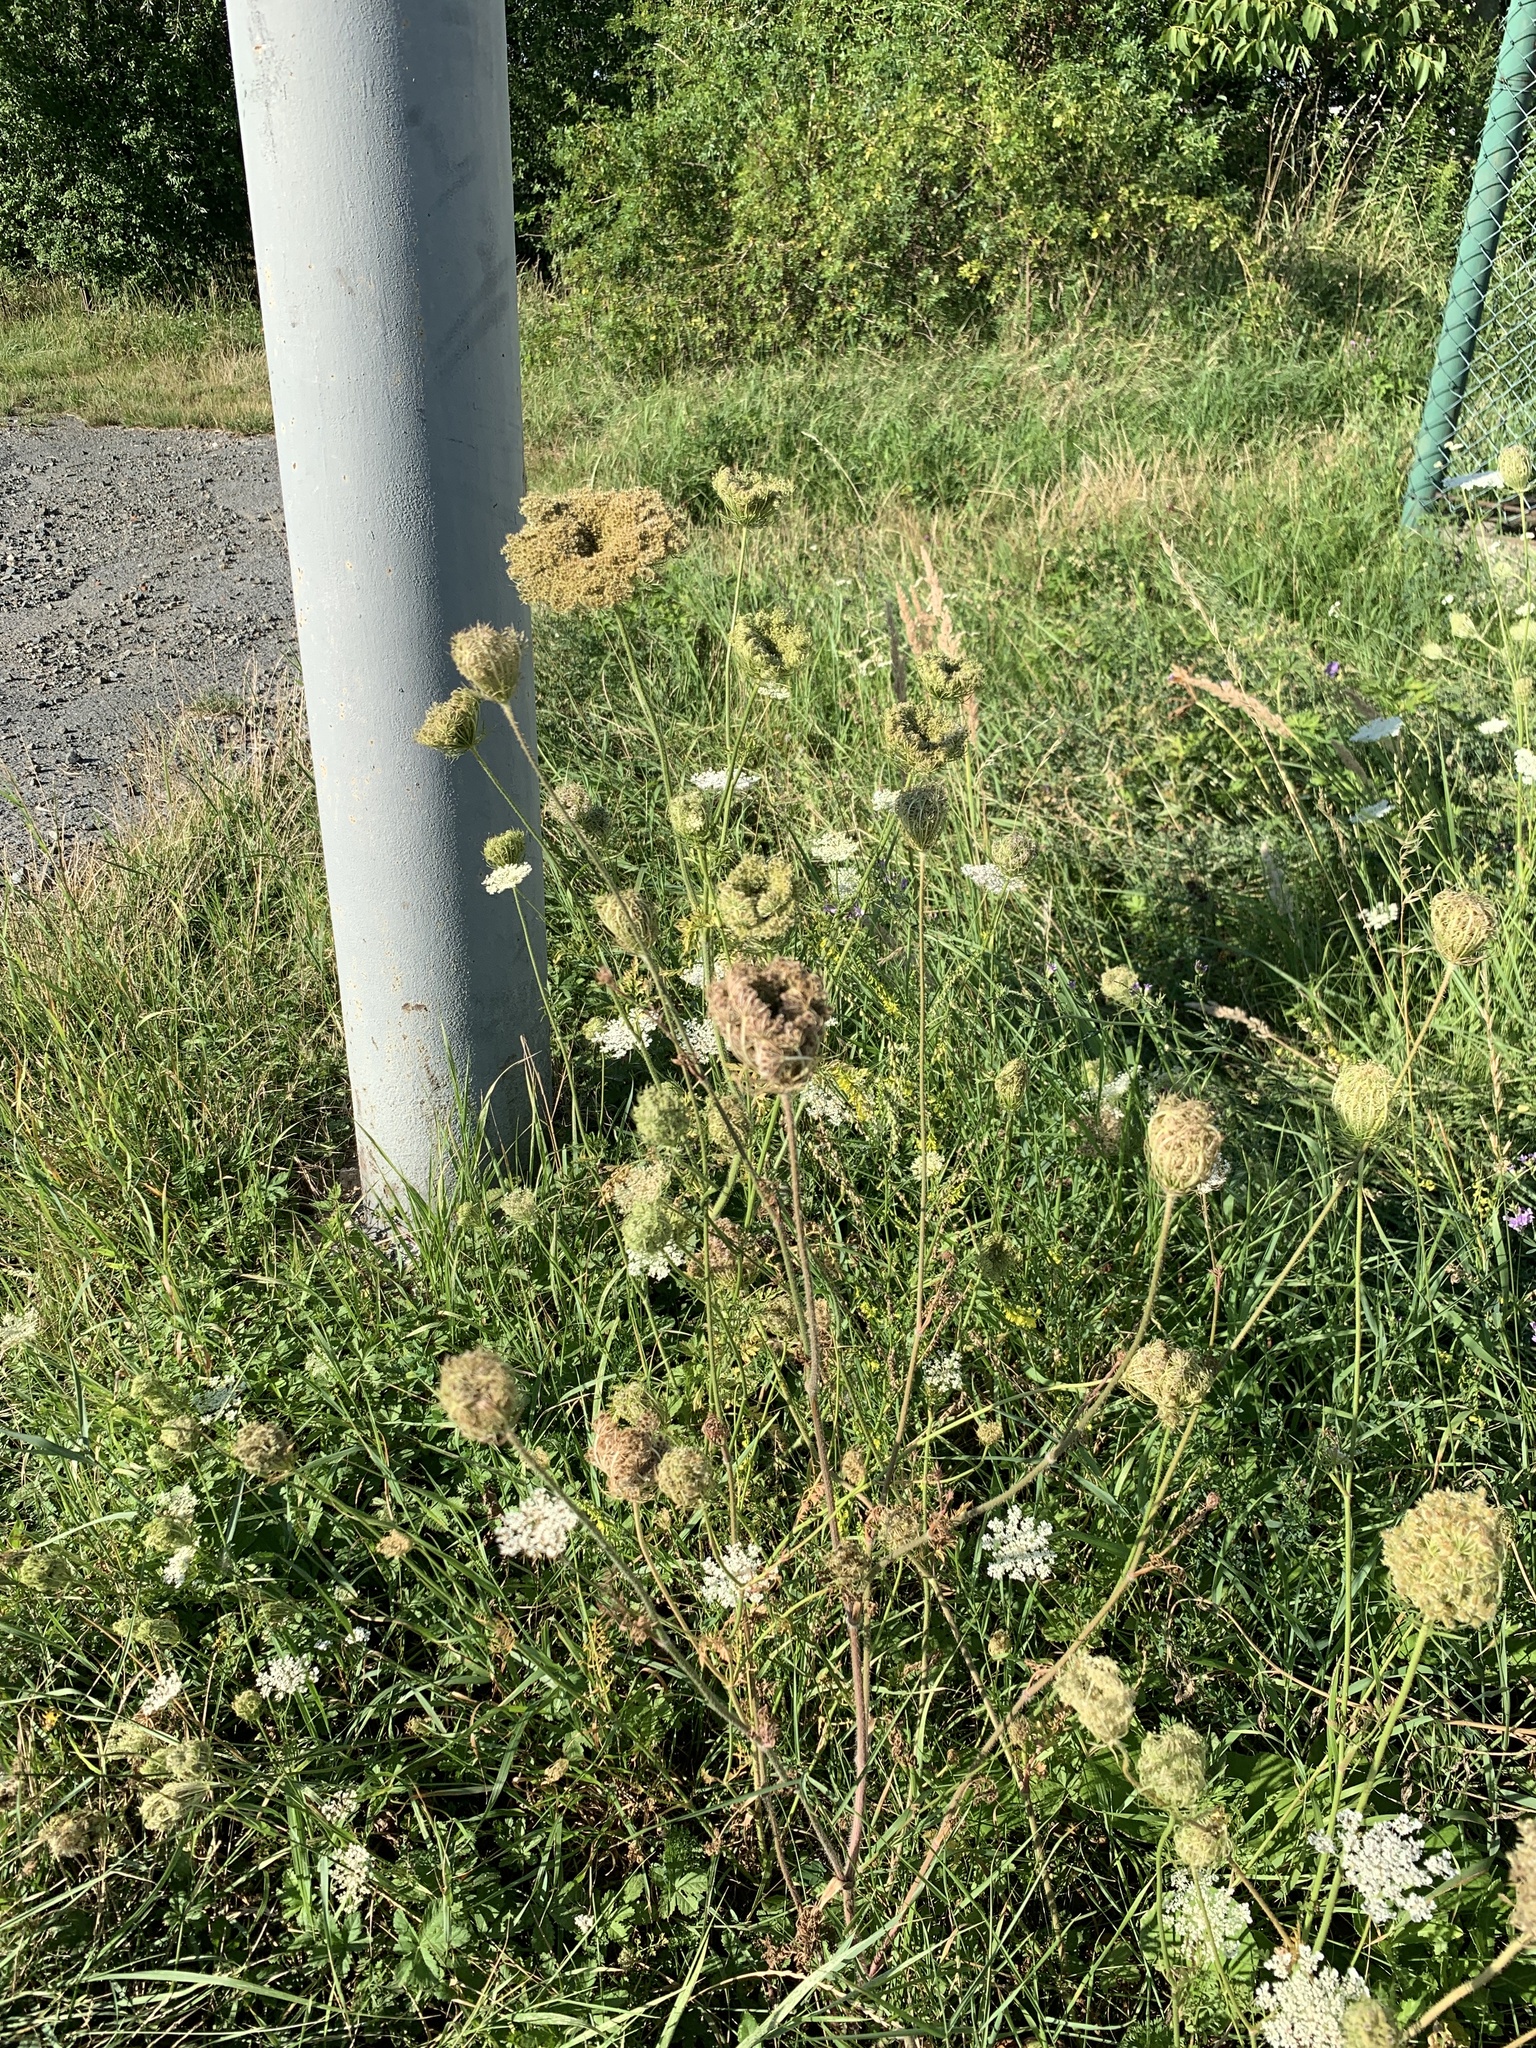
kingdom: Plantae
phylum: Tracheophyta
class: Magnoliopsida
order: Apiales
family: Apiaceae
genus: Daucus
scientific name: Daucus carota
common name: Wild carrot
